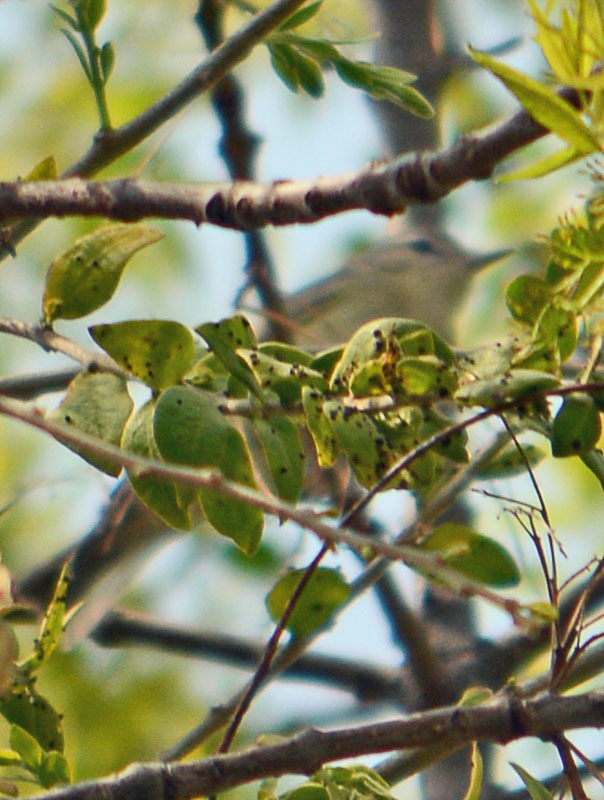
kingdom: Animalia
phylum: Chordata
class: Aves
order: Passeriformes
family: Vireonidae
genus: Vireo
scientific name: Vireo gilvus
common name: Warbling vireo
